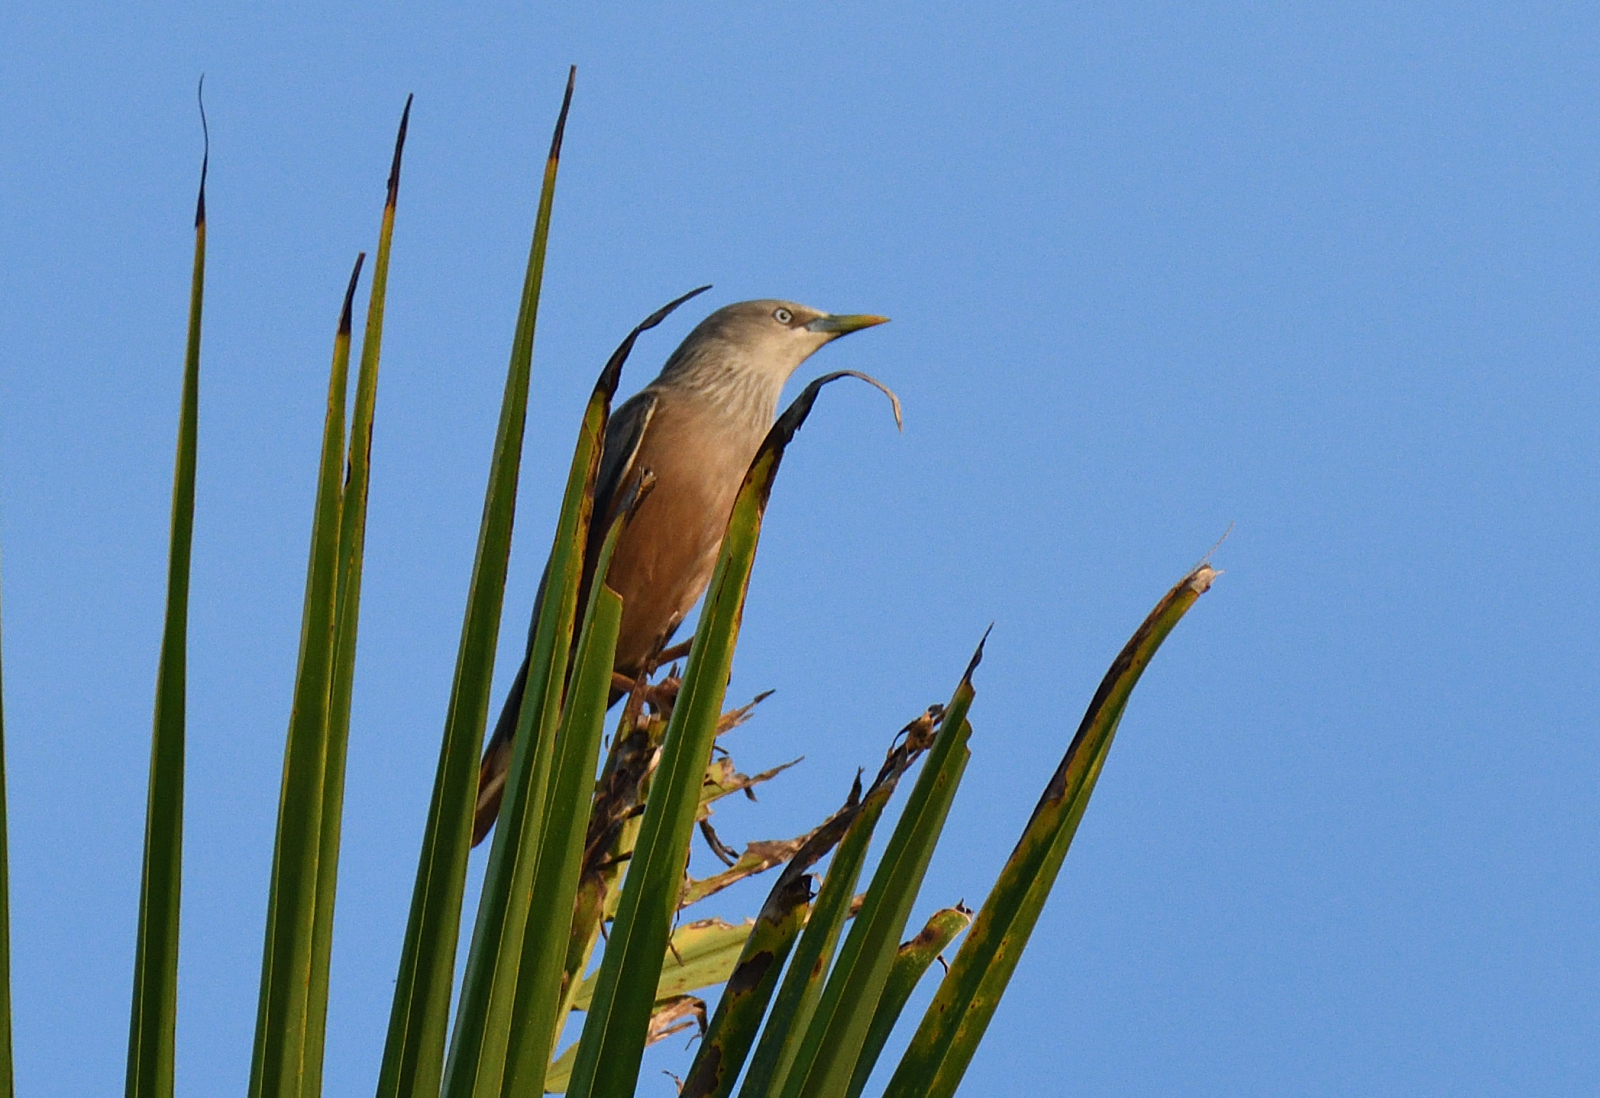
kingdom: Animalia
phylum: Chordata
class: Aves
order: Passeriformes
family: Sturnidae
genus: Sturnia
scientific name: Sturnia malabarica
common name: Chestnut-tailed starling
